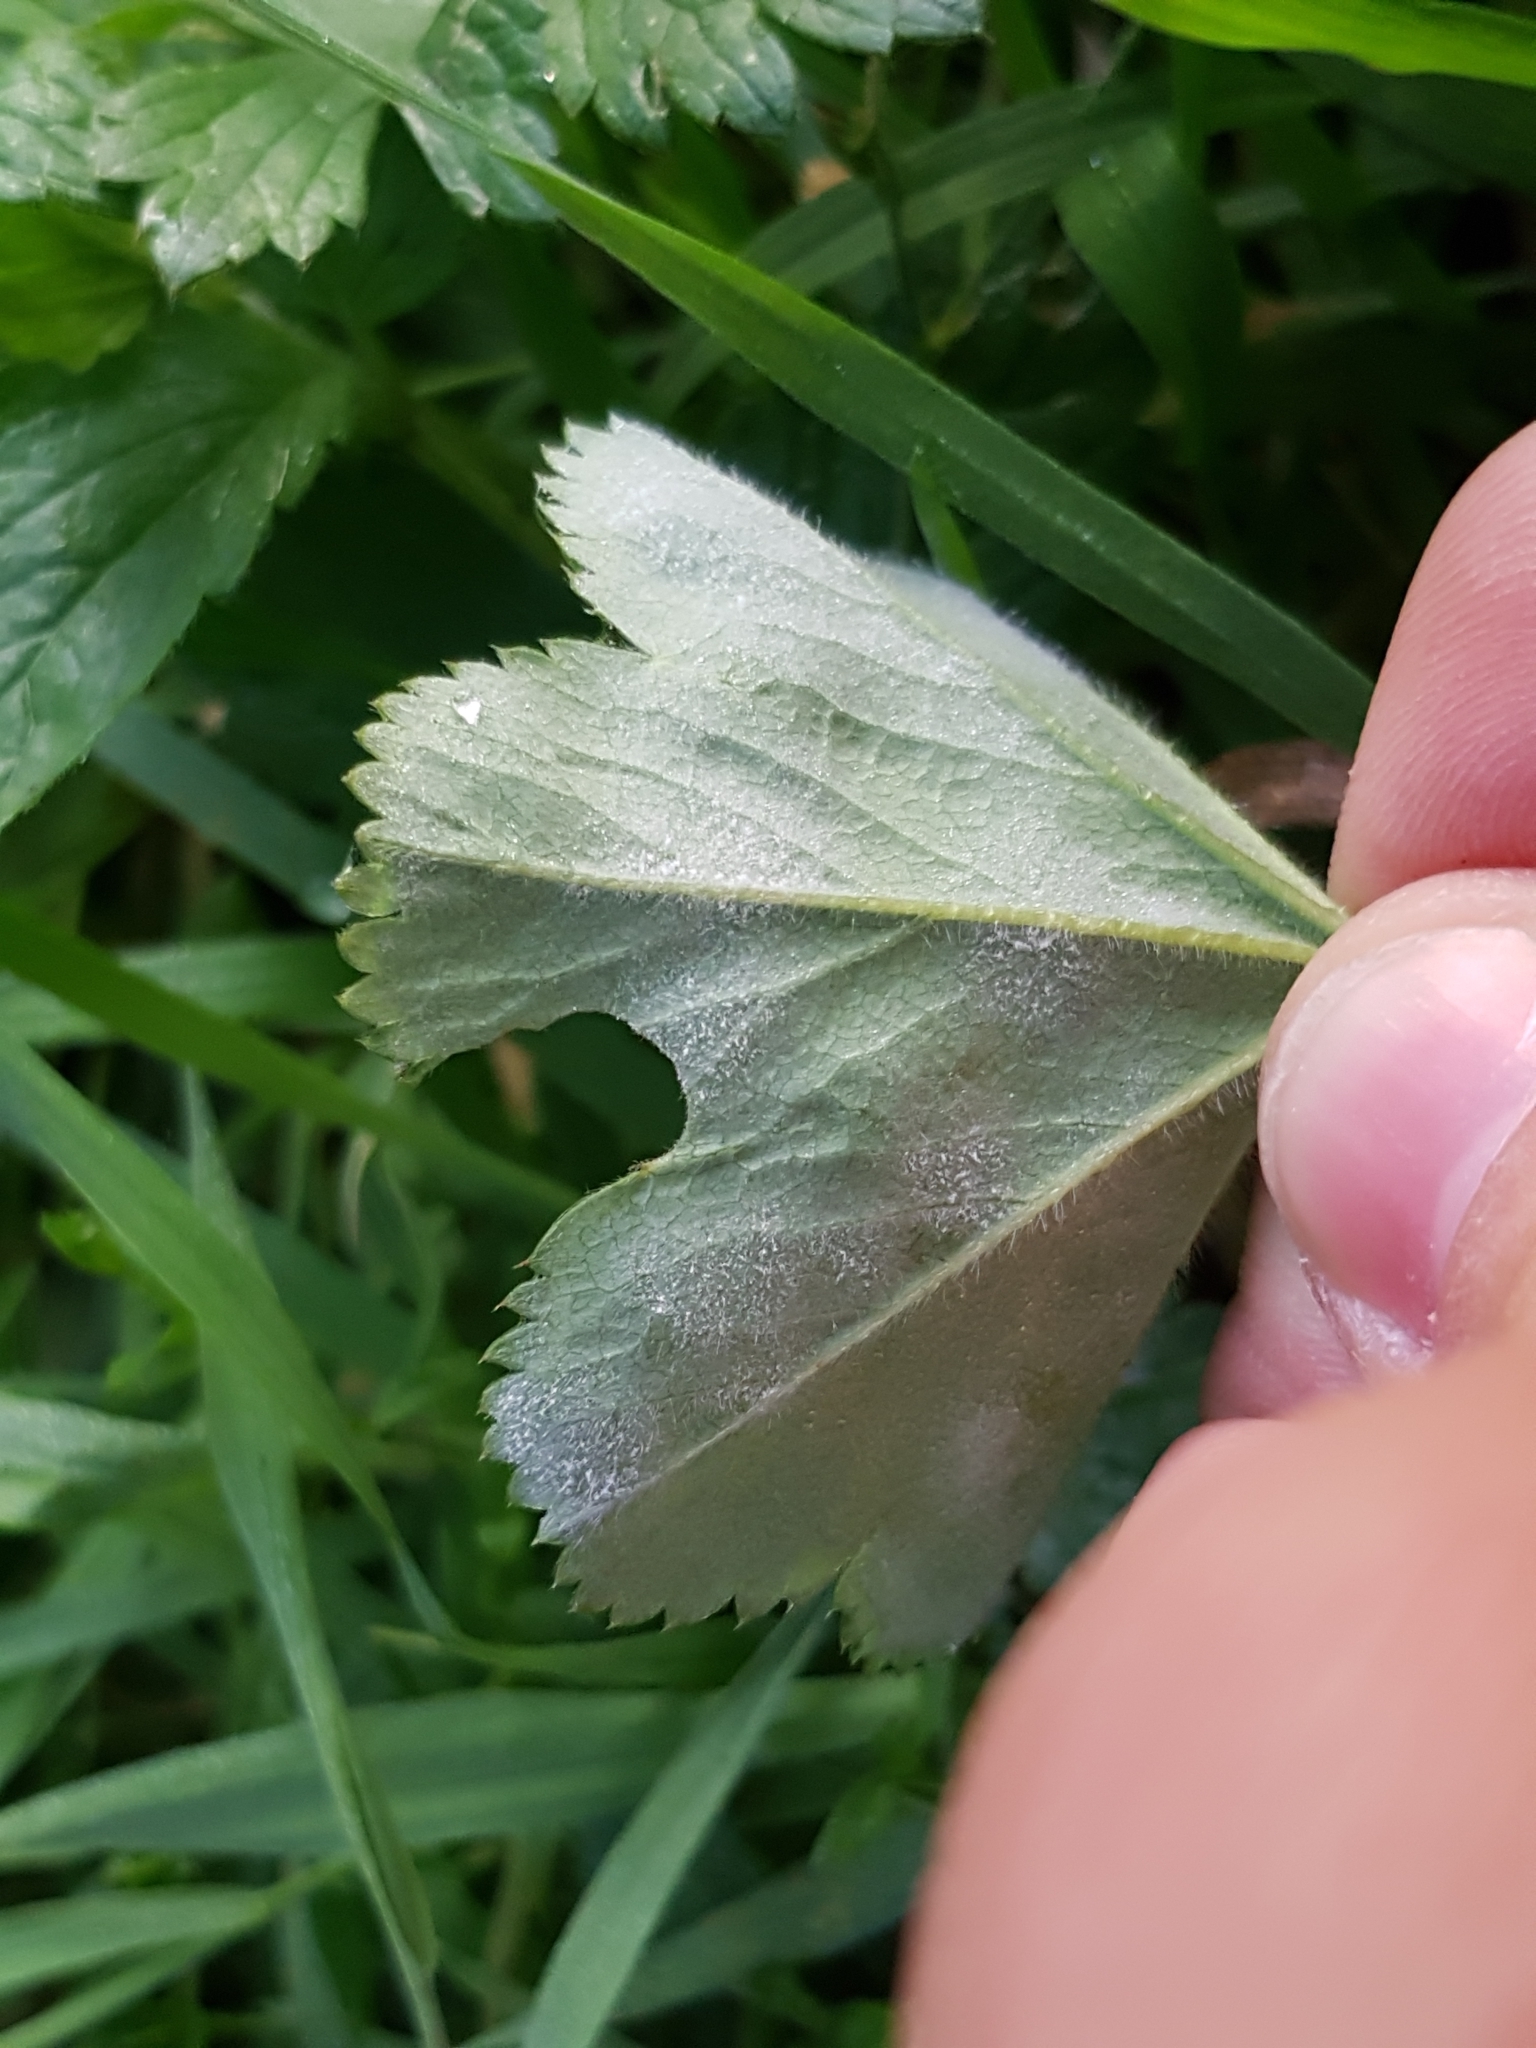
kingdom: Fungi
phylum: Ascomycota
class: Leotiomycetes
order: Helotiales
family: Erysiphaceae
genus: Podosphaera
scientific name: Podosphaera aphanis
